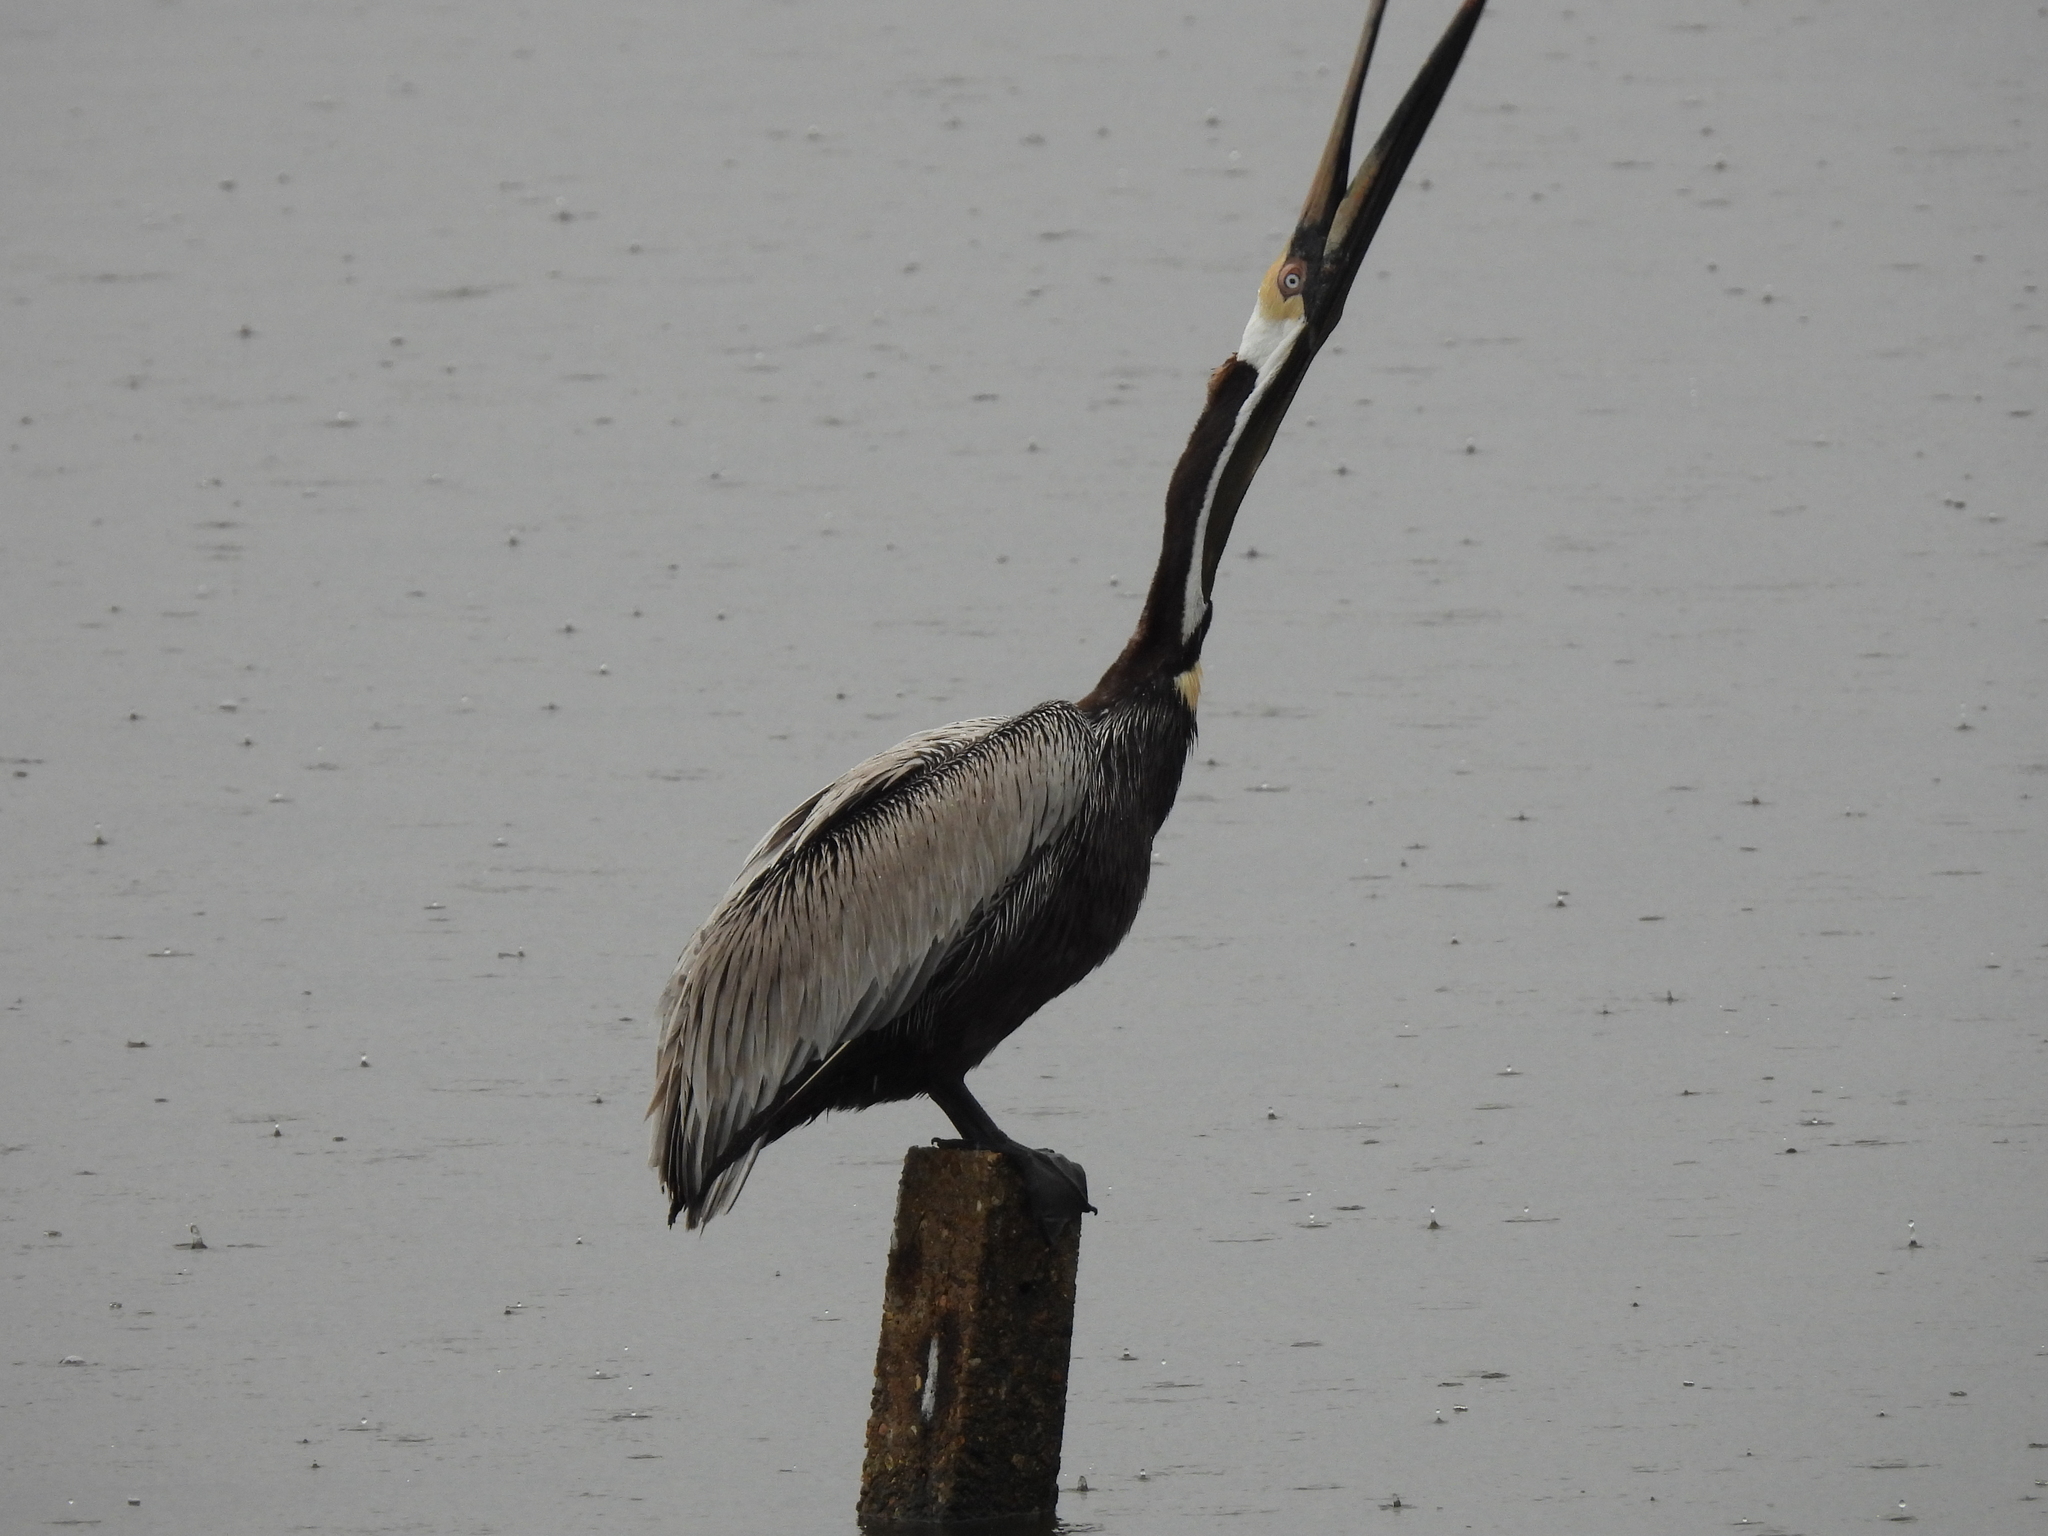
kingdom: Animalia
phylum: Chordata
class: Aves
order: Pelecaniformes
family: Pelecanidae
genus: Pelecanus
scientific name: Pelecanus occidentalis
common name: Brown pelican
